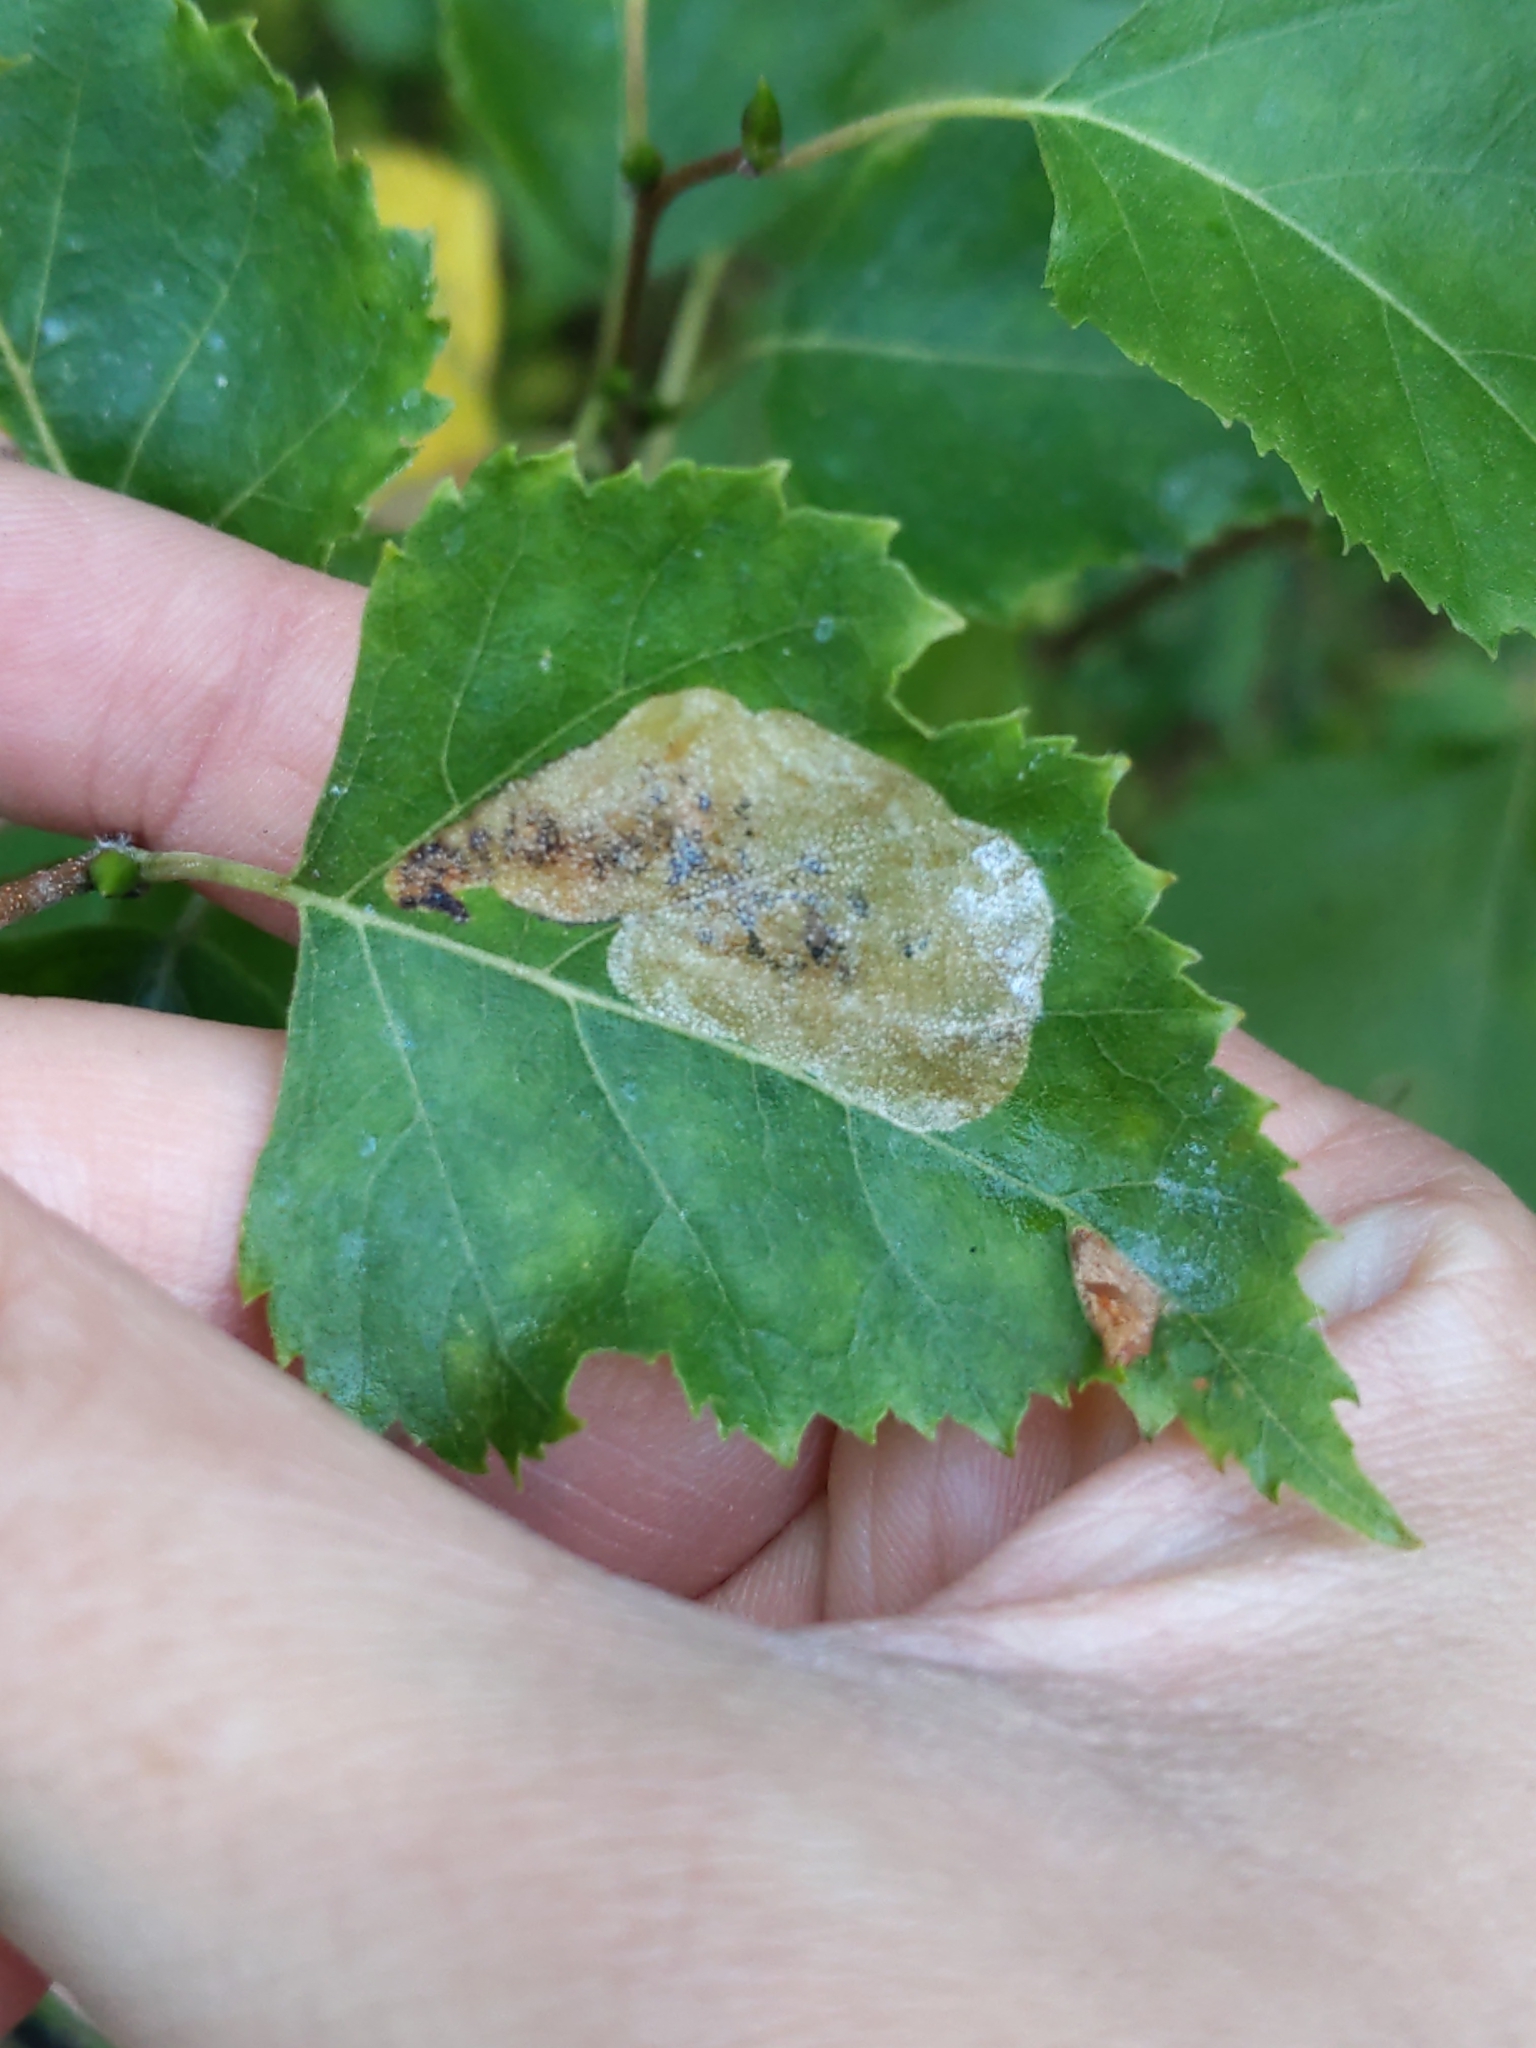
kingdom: Animalia
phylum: Arthropoda
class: Insecta
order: Hymenoptera
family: Tenthredinidae
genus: Profenusa
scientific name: Profenusa thomsoni
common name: Amber-marked birch leafminer
